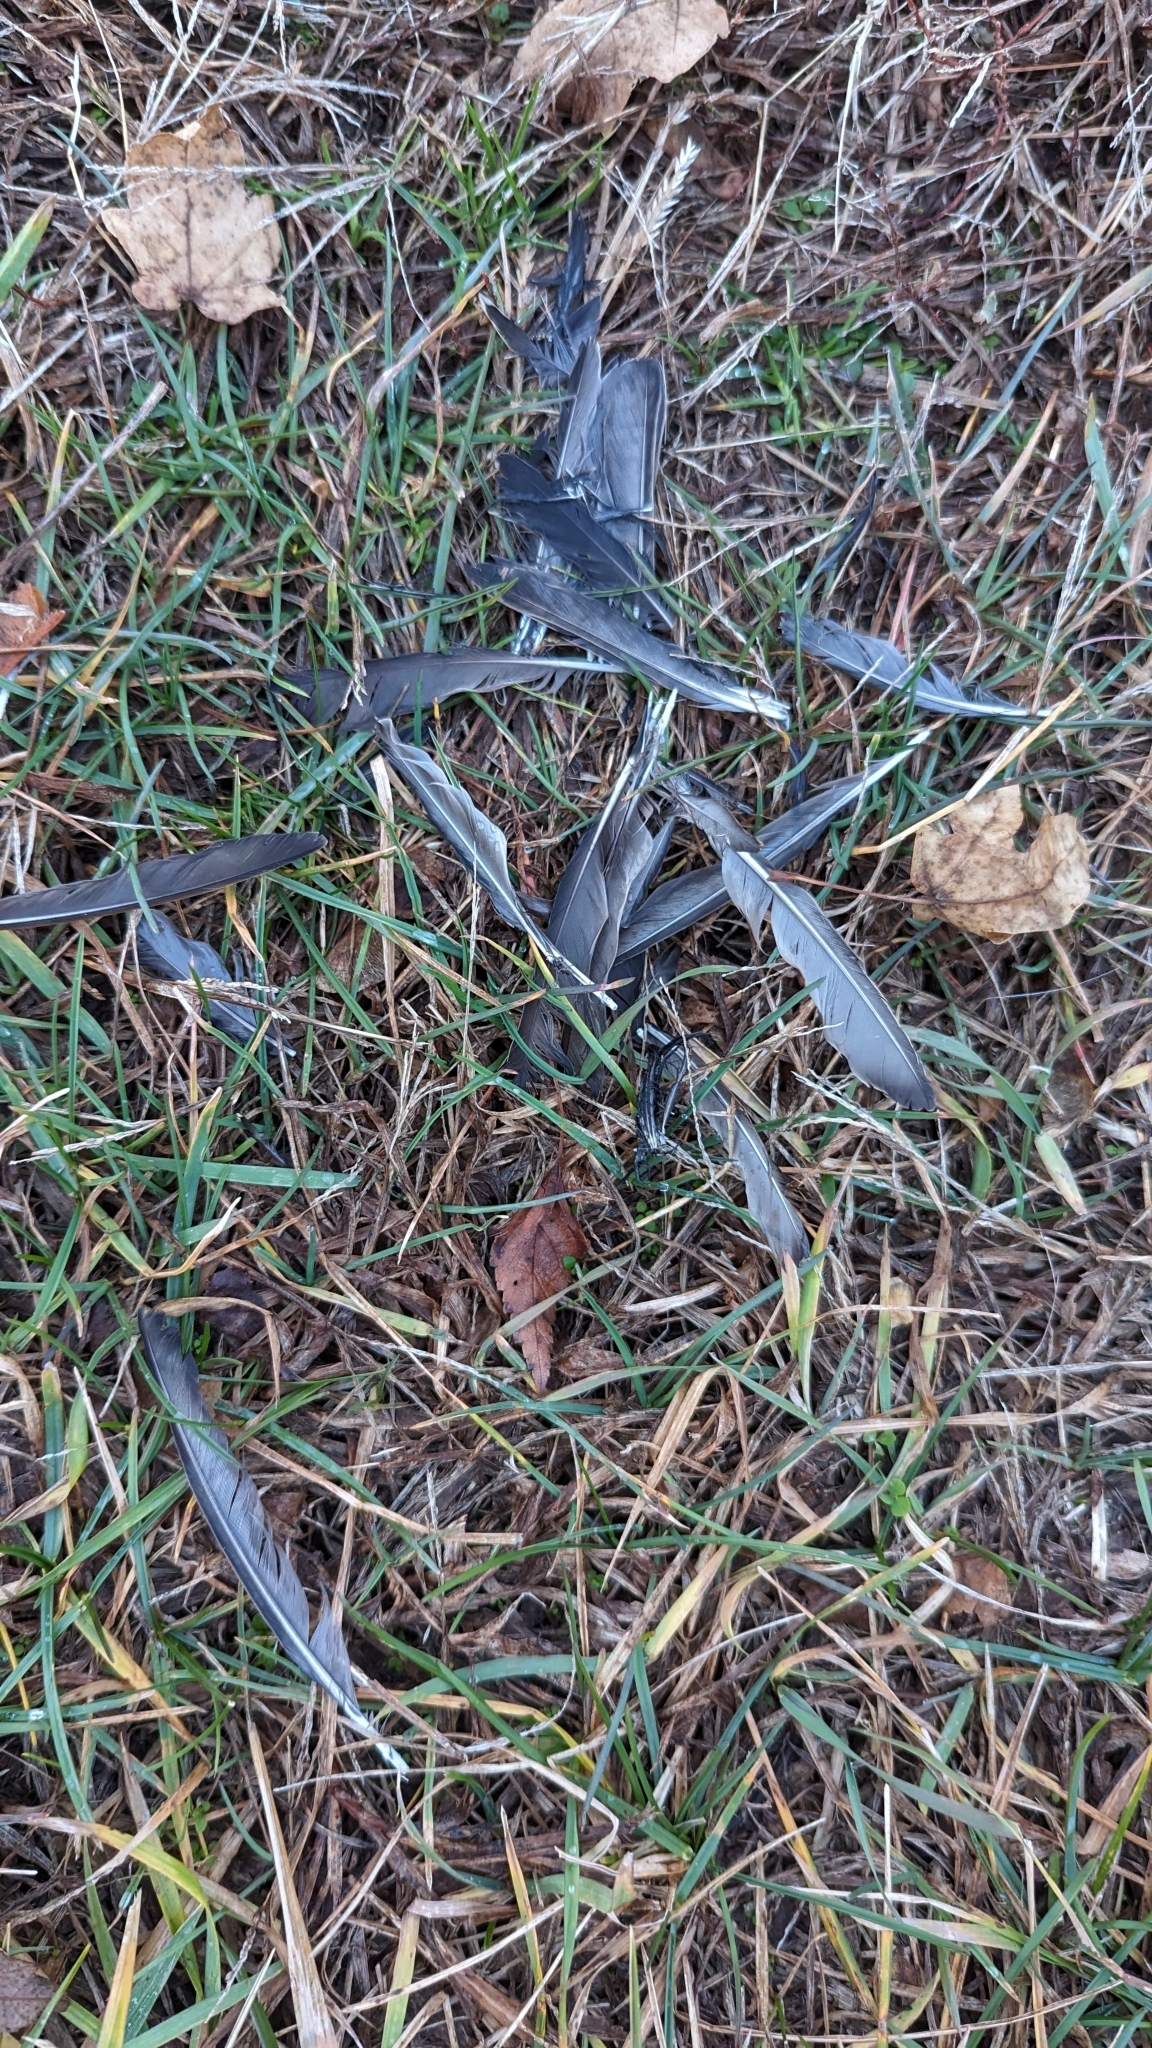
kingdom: Animalia
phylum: Chordata
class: Aves
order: Passeriformes
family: Sturnidae
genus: Sturnus
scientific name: Sturnus vulgaris
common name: Common starling
